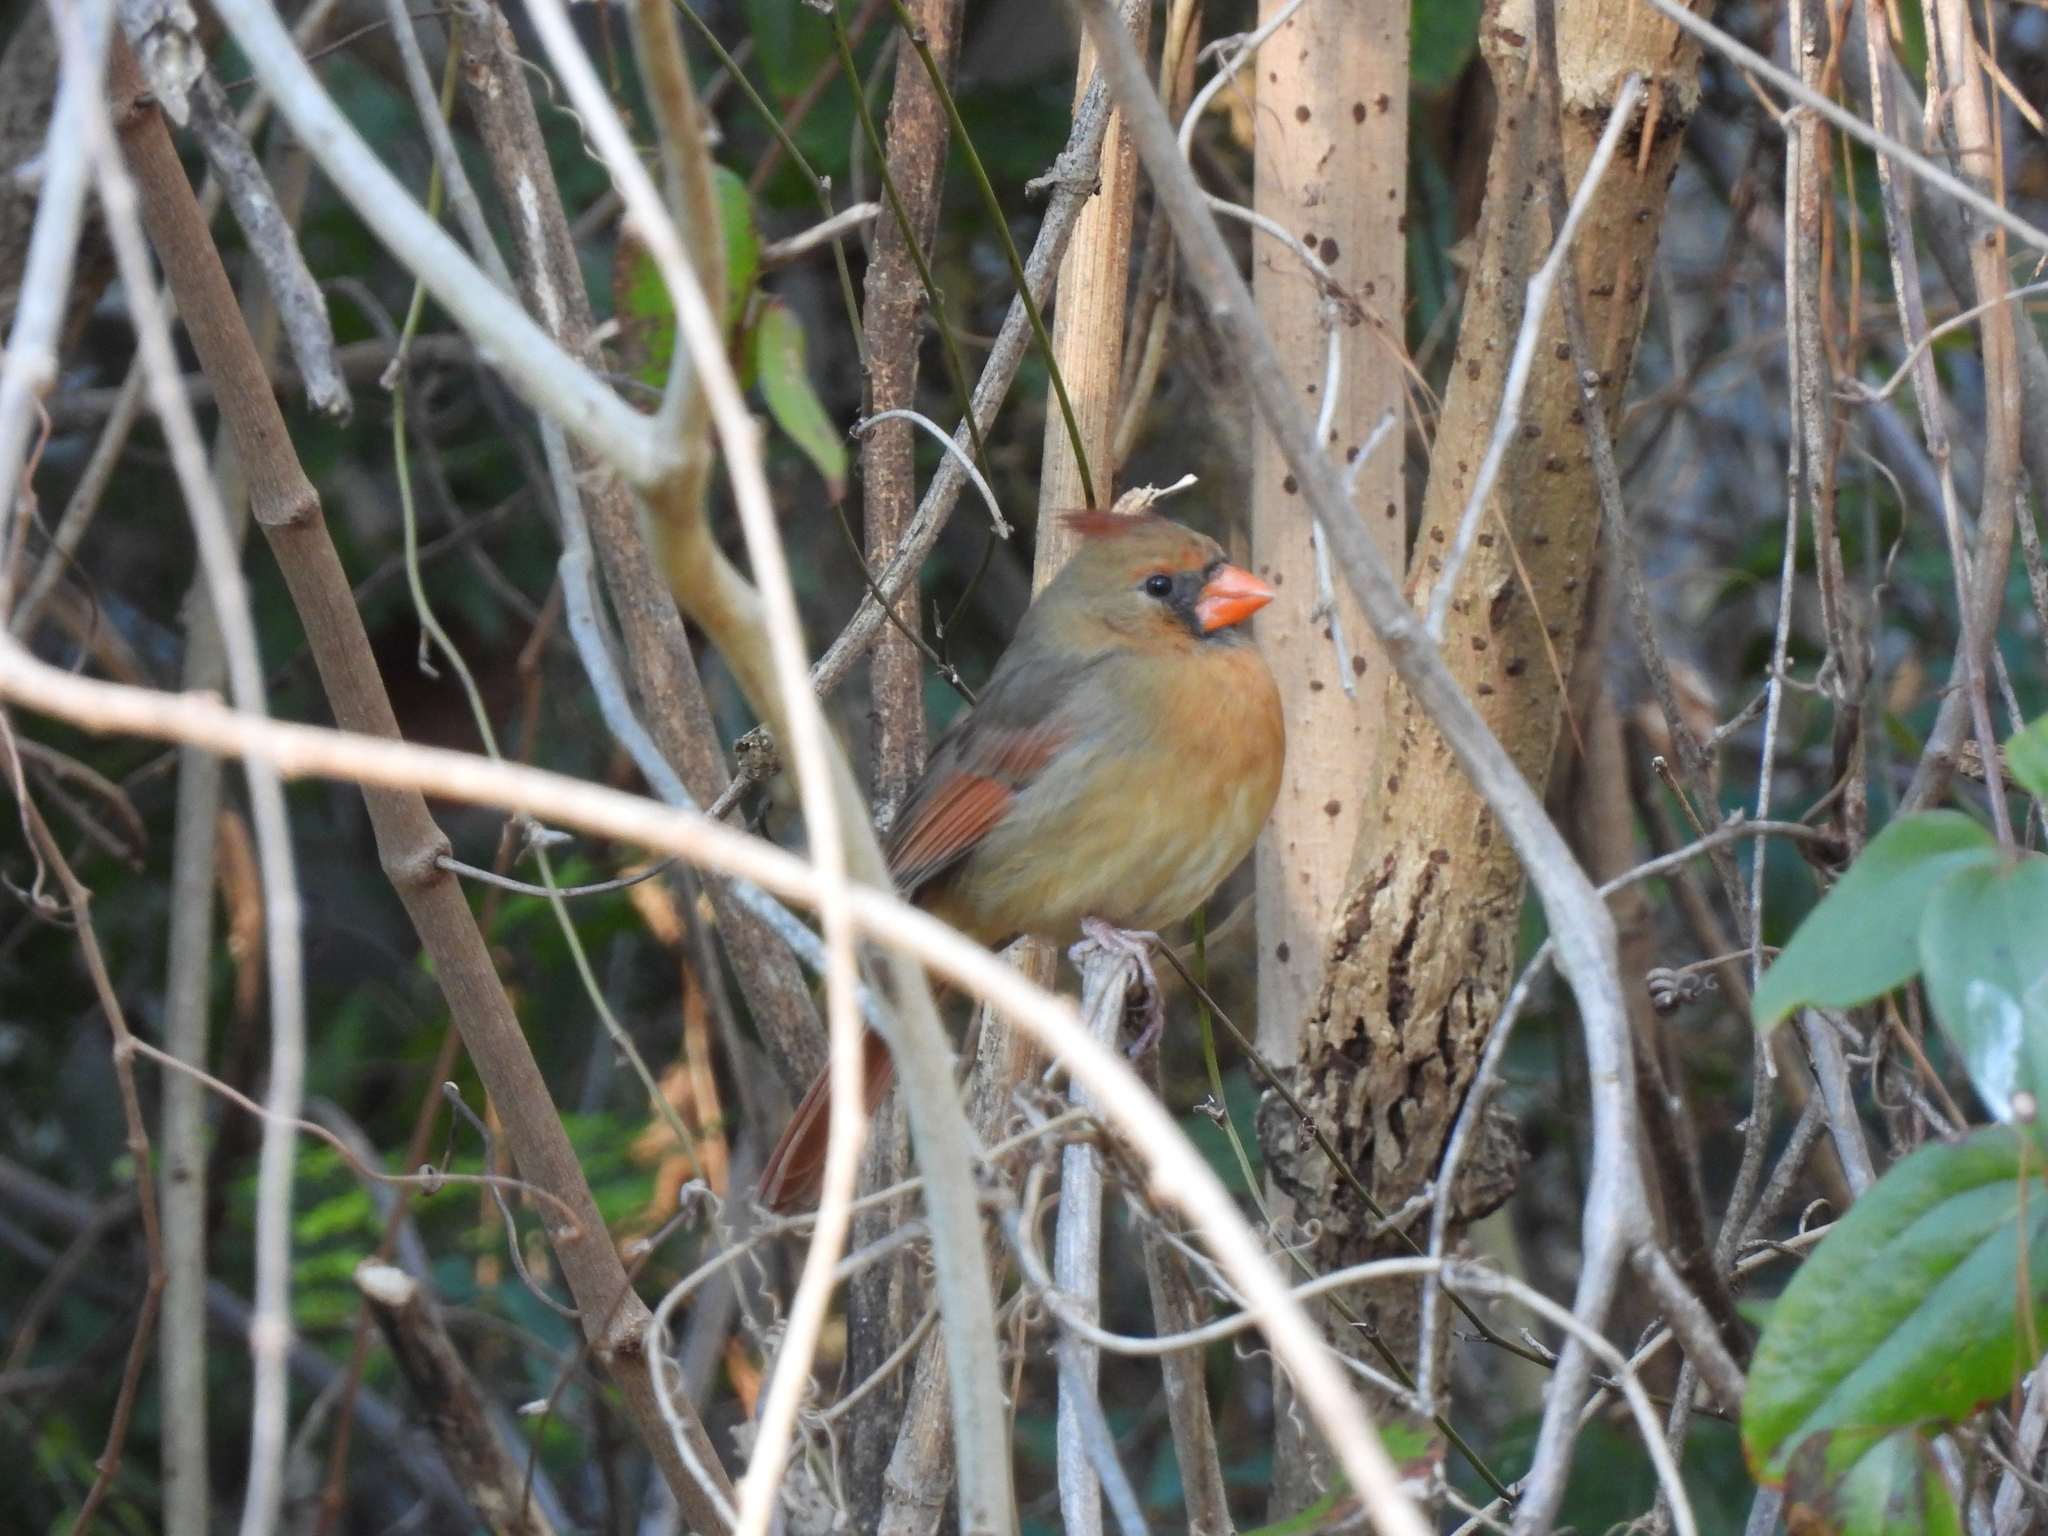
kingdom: Animalia
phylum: Chordata
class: Aves
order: Passeriformes
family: Cardinalidae
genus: Cardinalis
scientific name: Cardinalis cardinalis
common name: Northern cardinal
